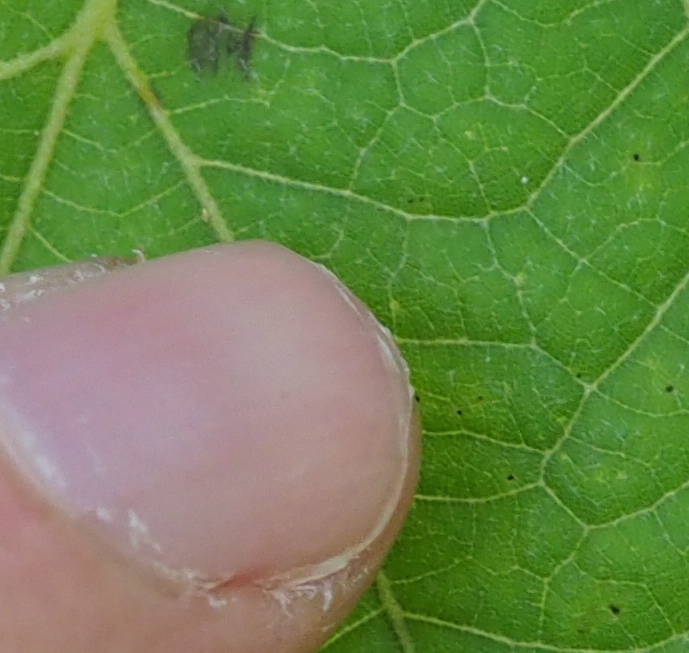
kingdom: Animalia
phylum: Arthropoda
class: Insecta
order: Diptera
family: Muscidae
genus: Graphomya
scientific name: Graphomya maculata
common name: Muscid fly
